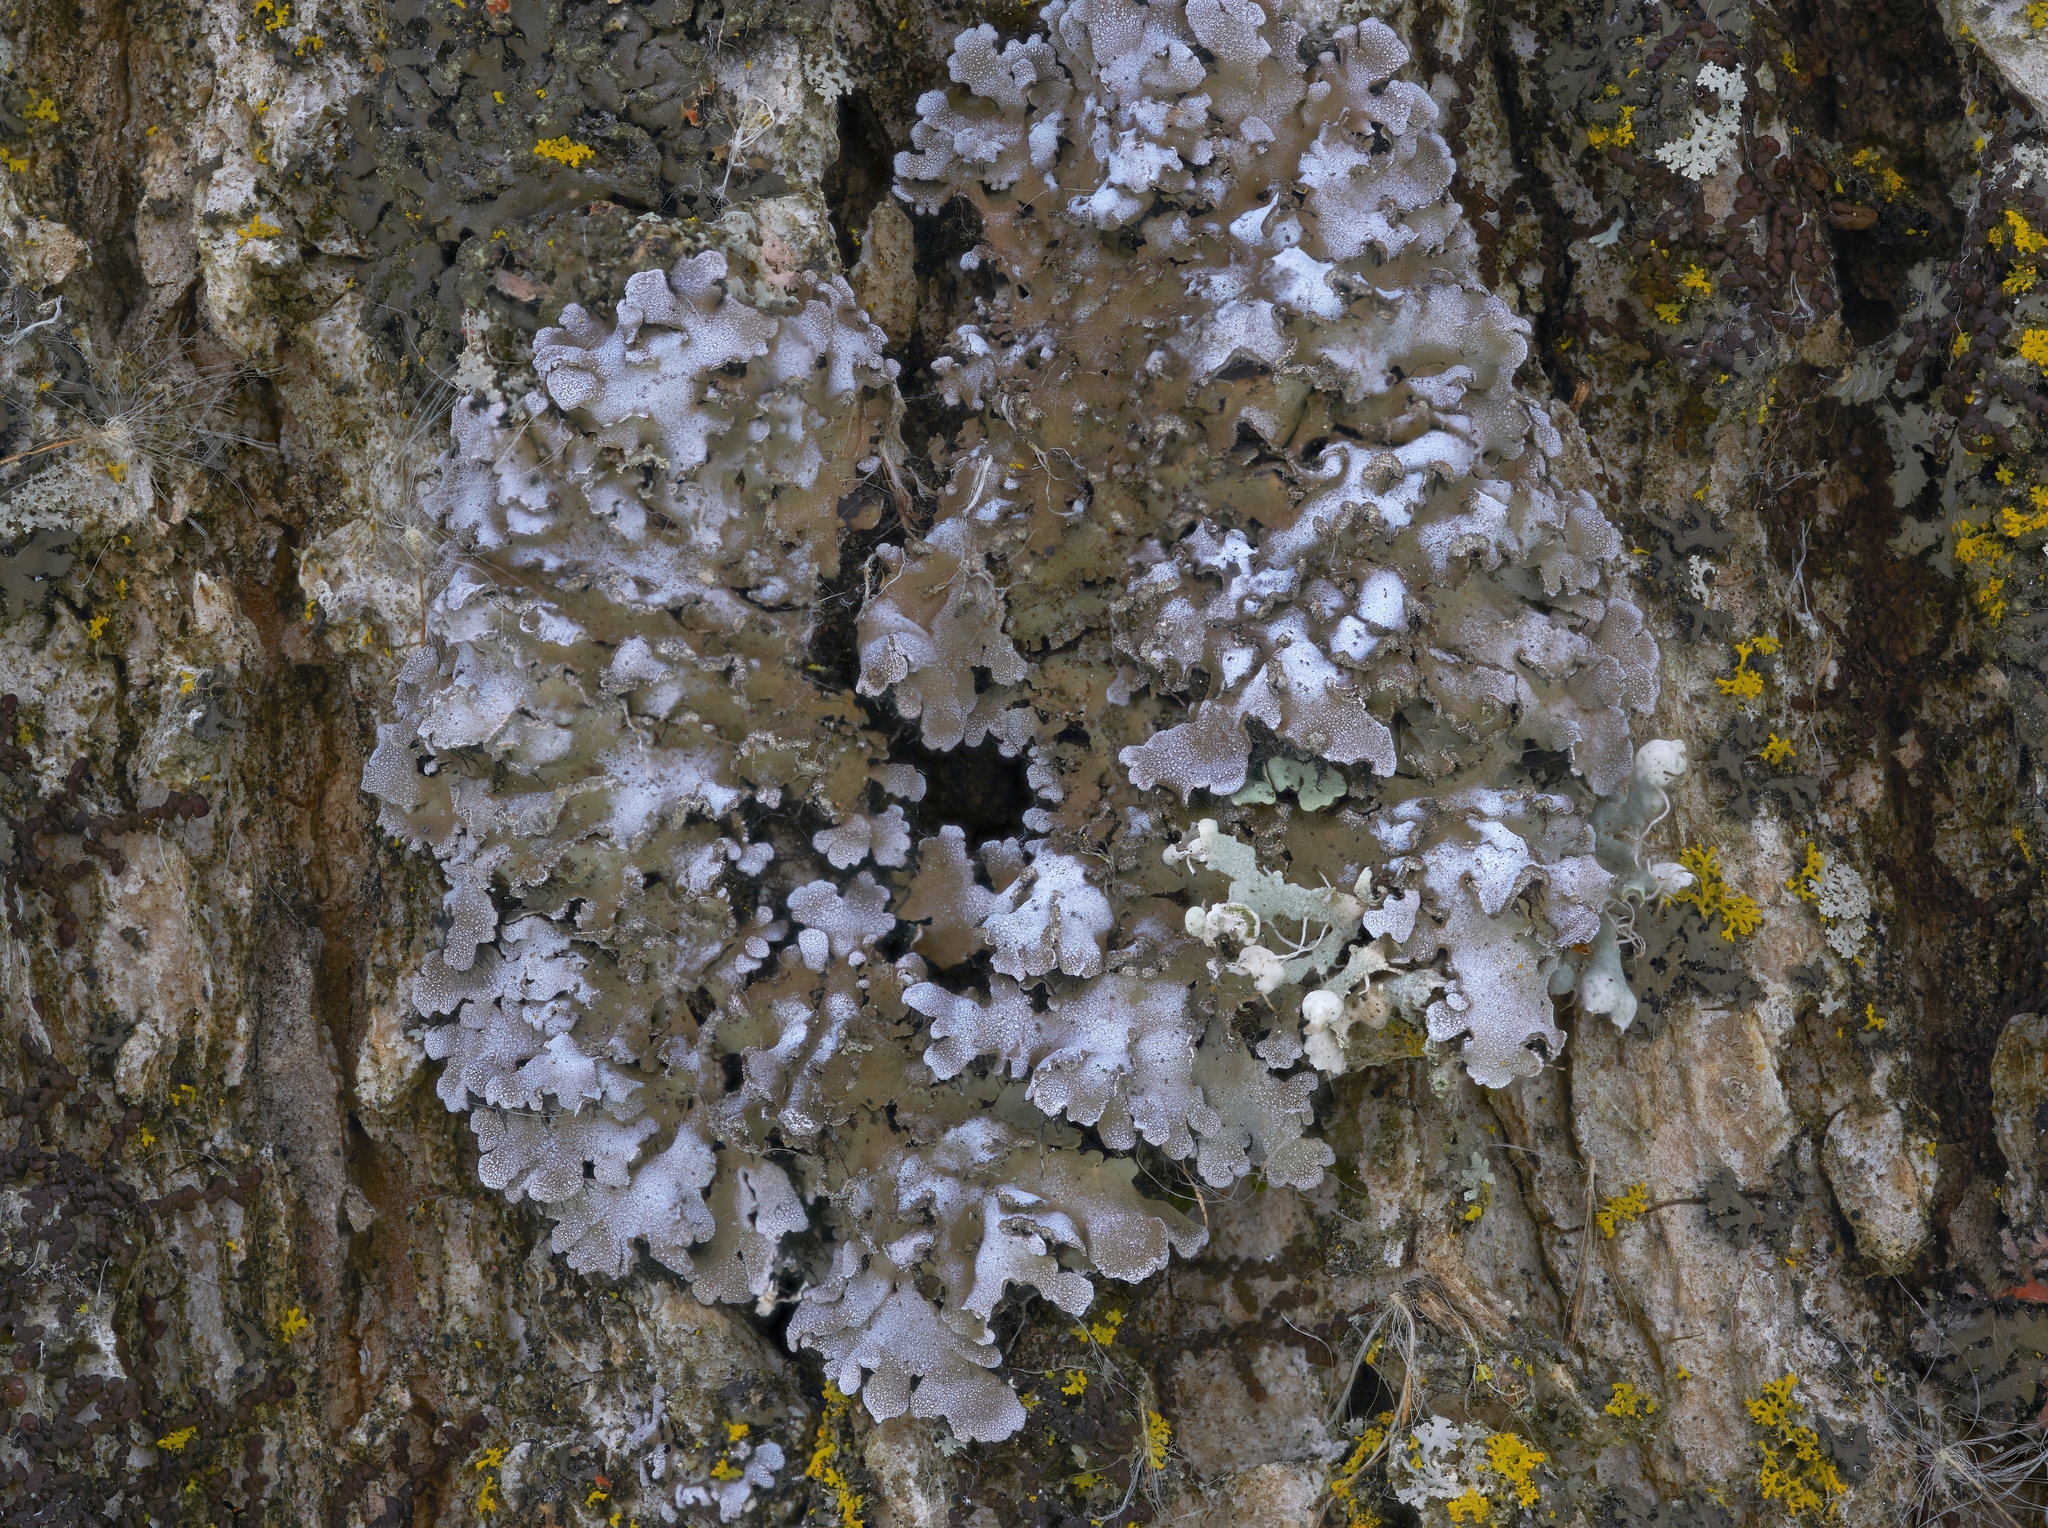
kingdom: Fungi
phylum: Ascomycota
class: Lecanoromycetes
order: Caliciales
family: Physciaceae
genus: Physconia
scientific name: Physconia detersa
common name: Bottlebrush frost lichen
